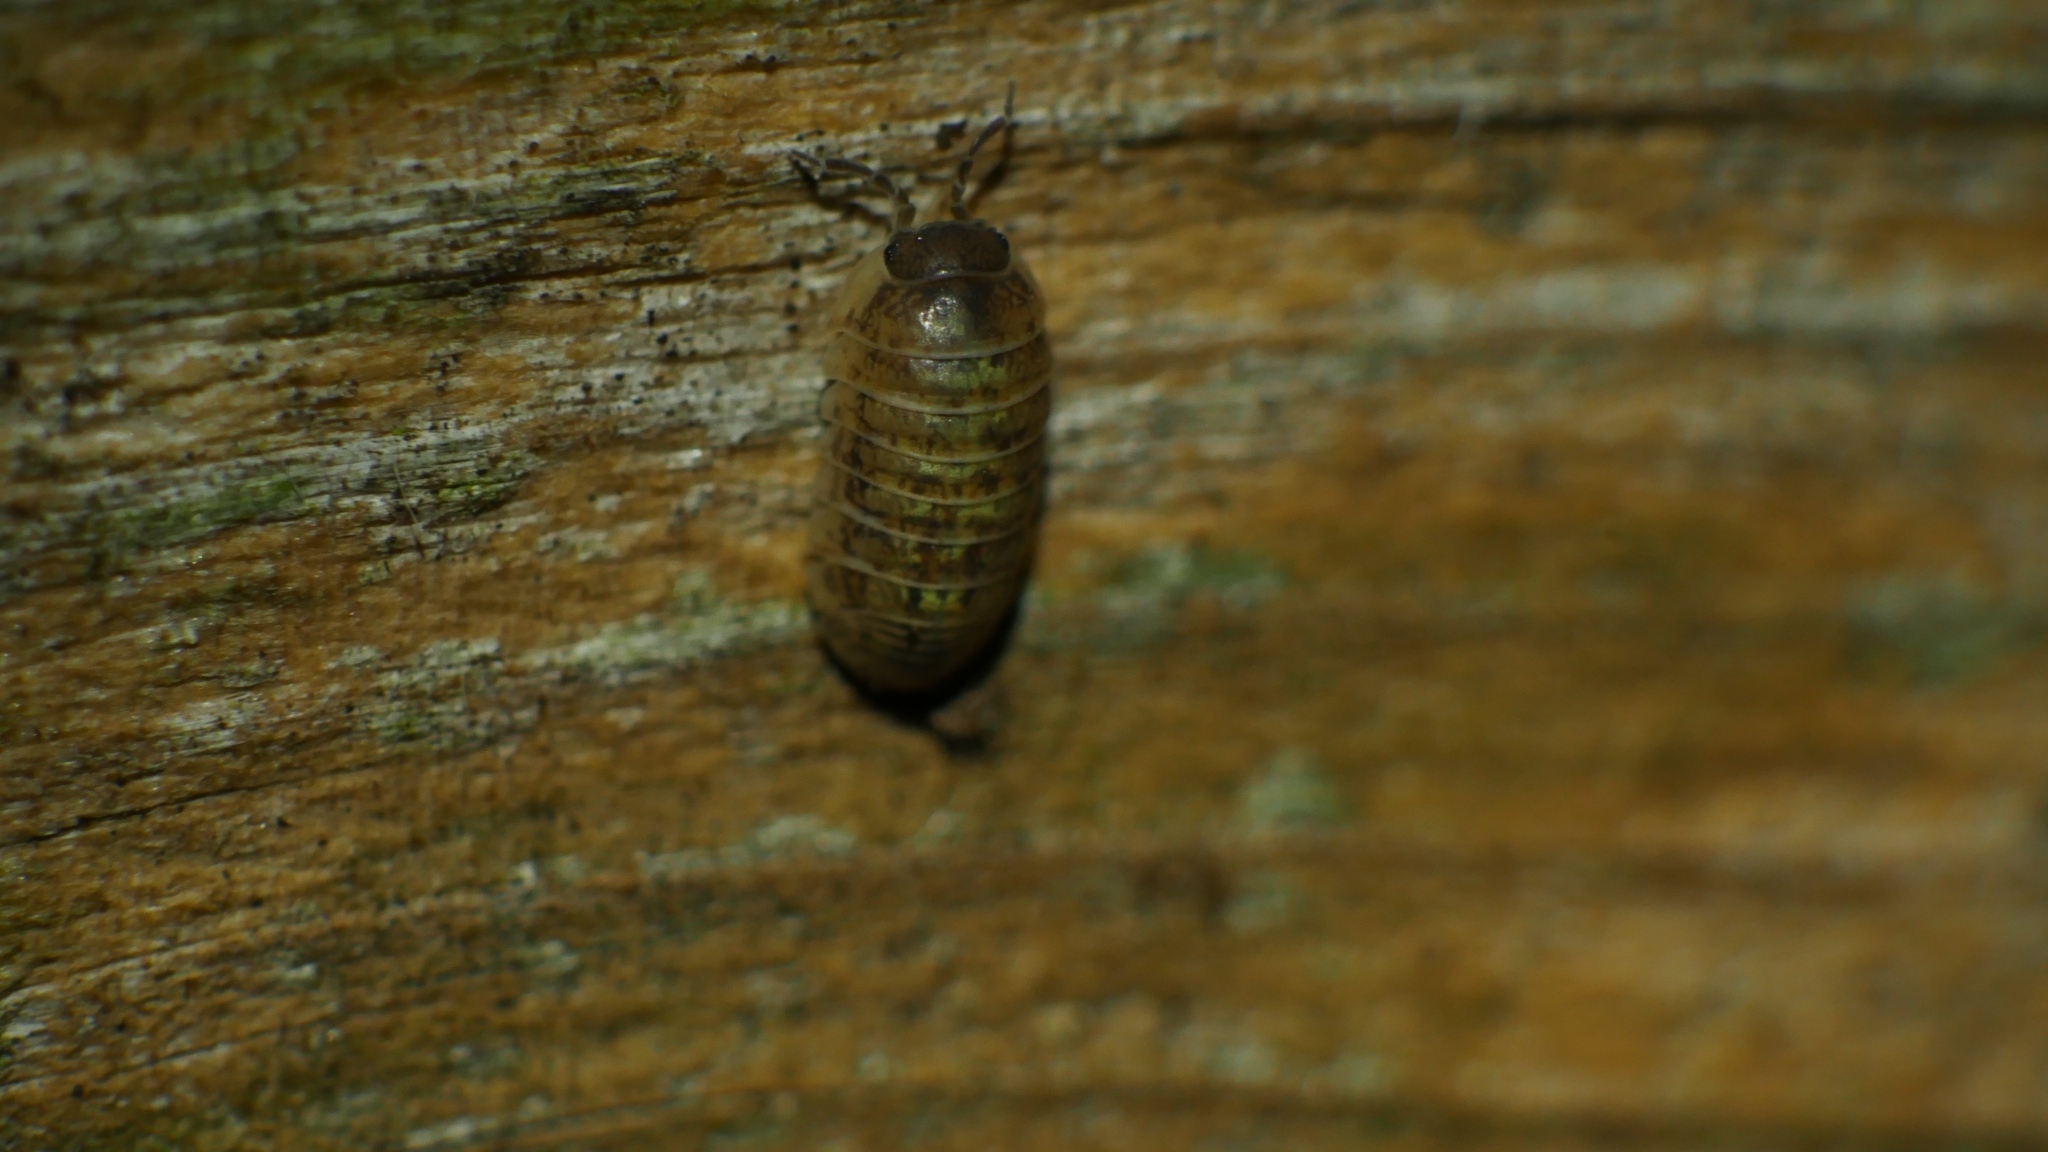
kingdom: Animalia
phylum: Arthropoda
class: Malacostraca
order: Isopoda
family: Armadillidiidae
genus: Armadillidium
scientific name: Armadillidium vulgare
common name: Common pill woodlouse
